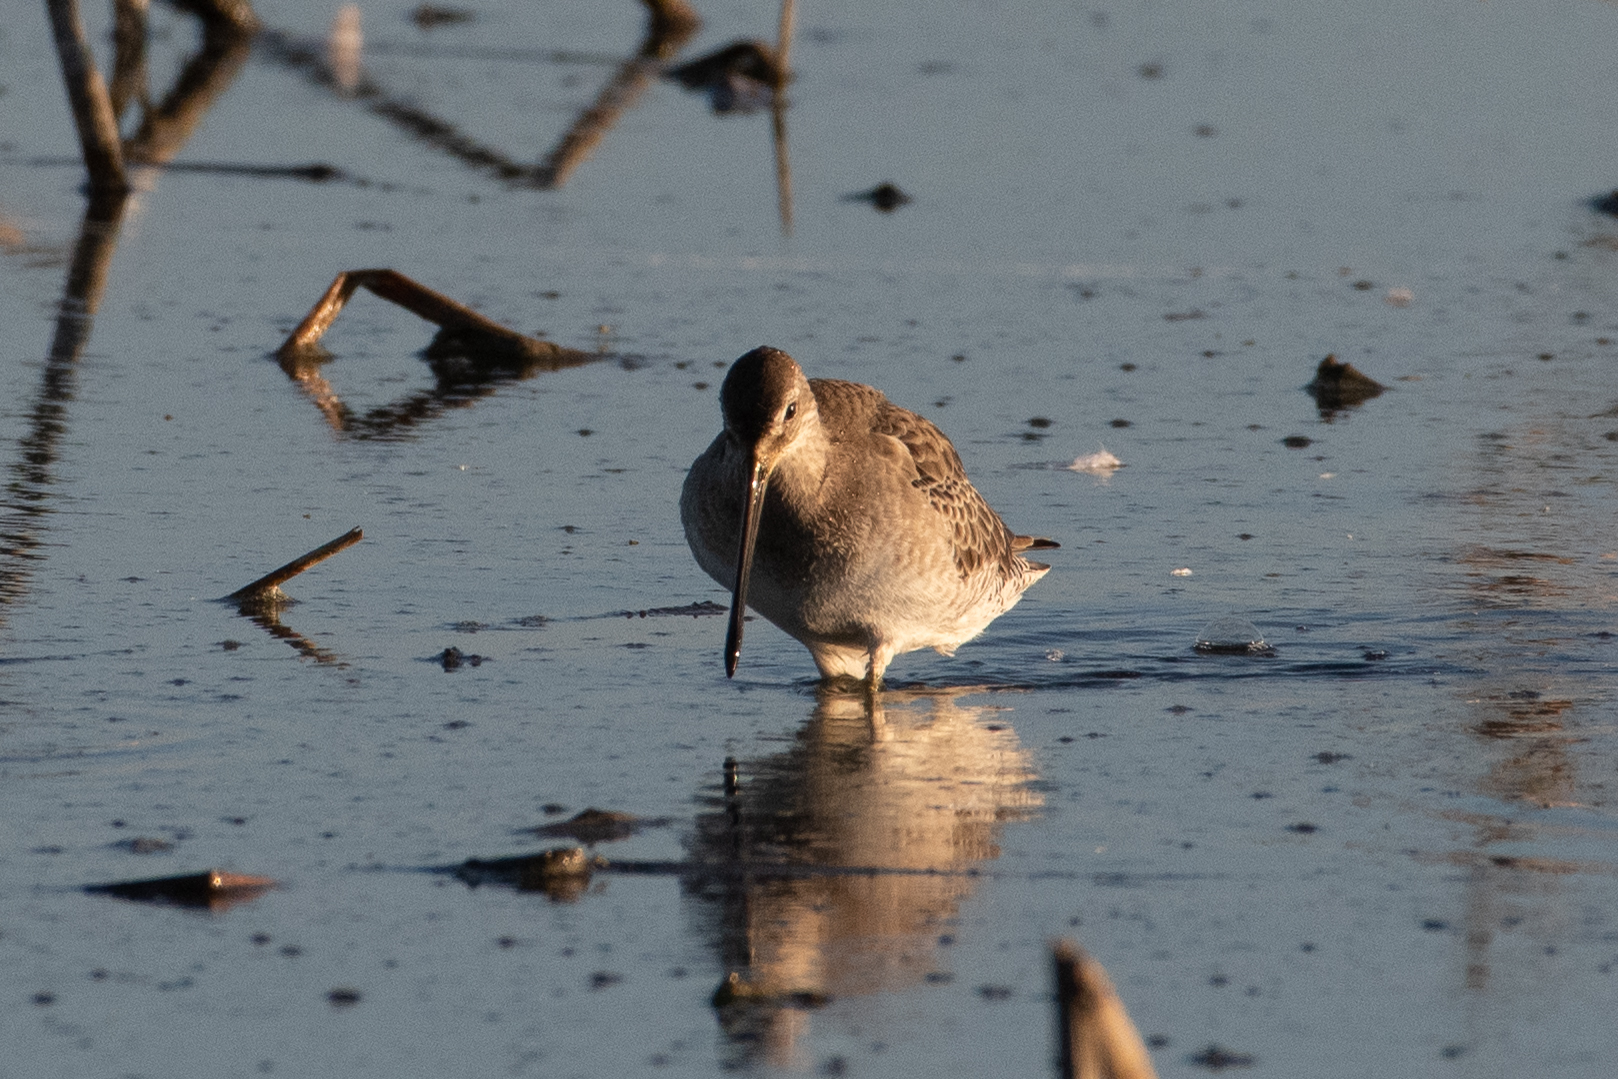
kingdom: Animalia
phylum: Chordata
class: Aves
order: Charadriiformes
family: Scolopacidae
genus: Limnodromus
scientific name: Limnodromus scolopaceus
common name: Long-billed dowitcher
